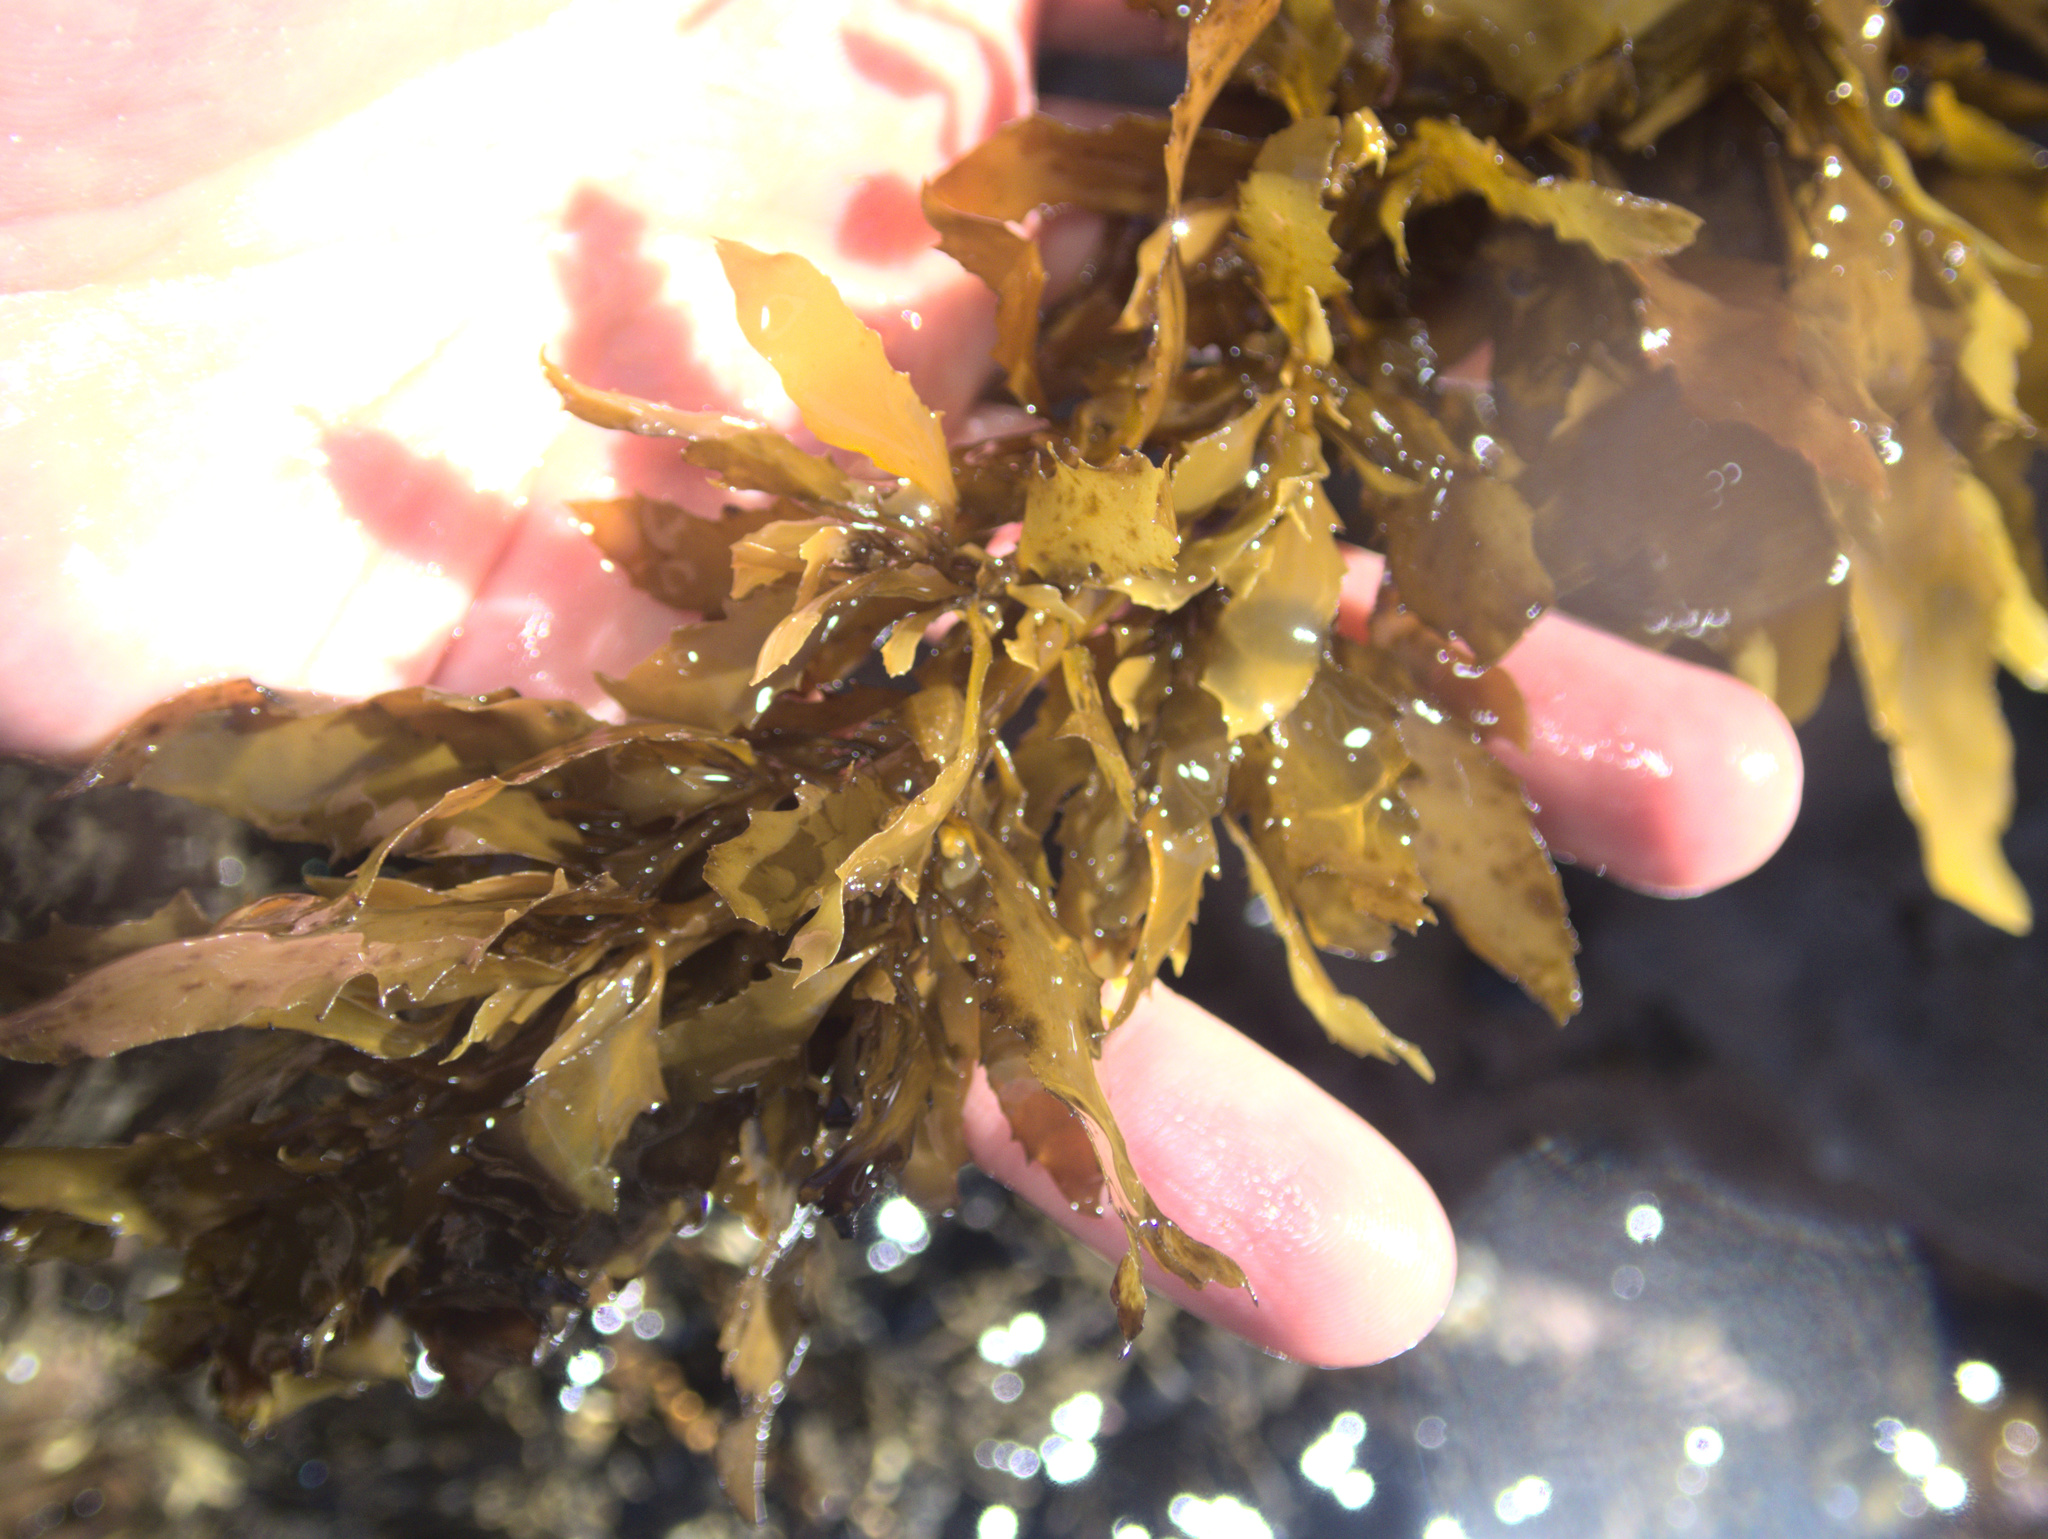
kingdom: Chromista
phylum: Ochrophyta
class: Phaeophyceae
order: Fucales
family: Sargassaceae
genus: Sargassum
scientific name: Sargassum sinclairii
